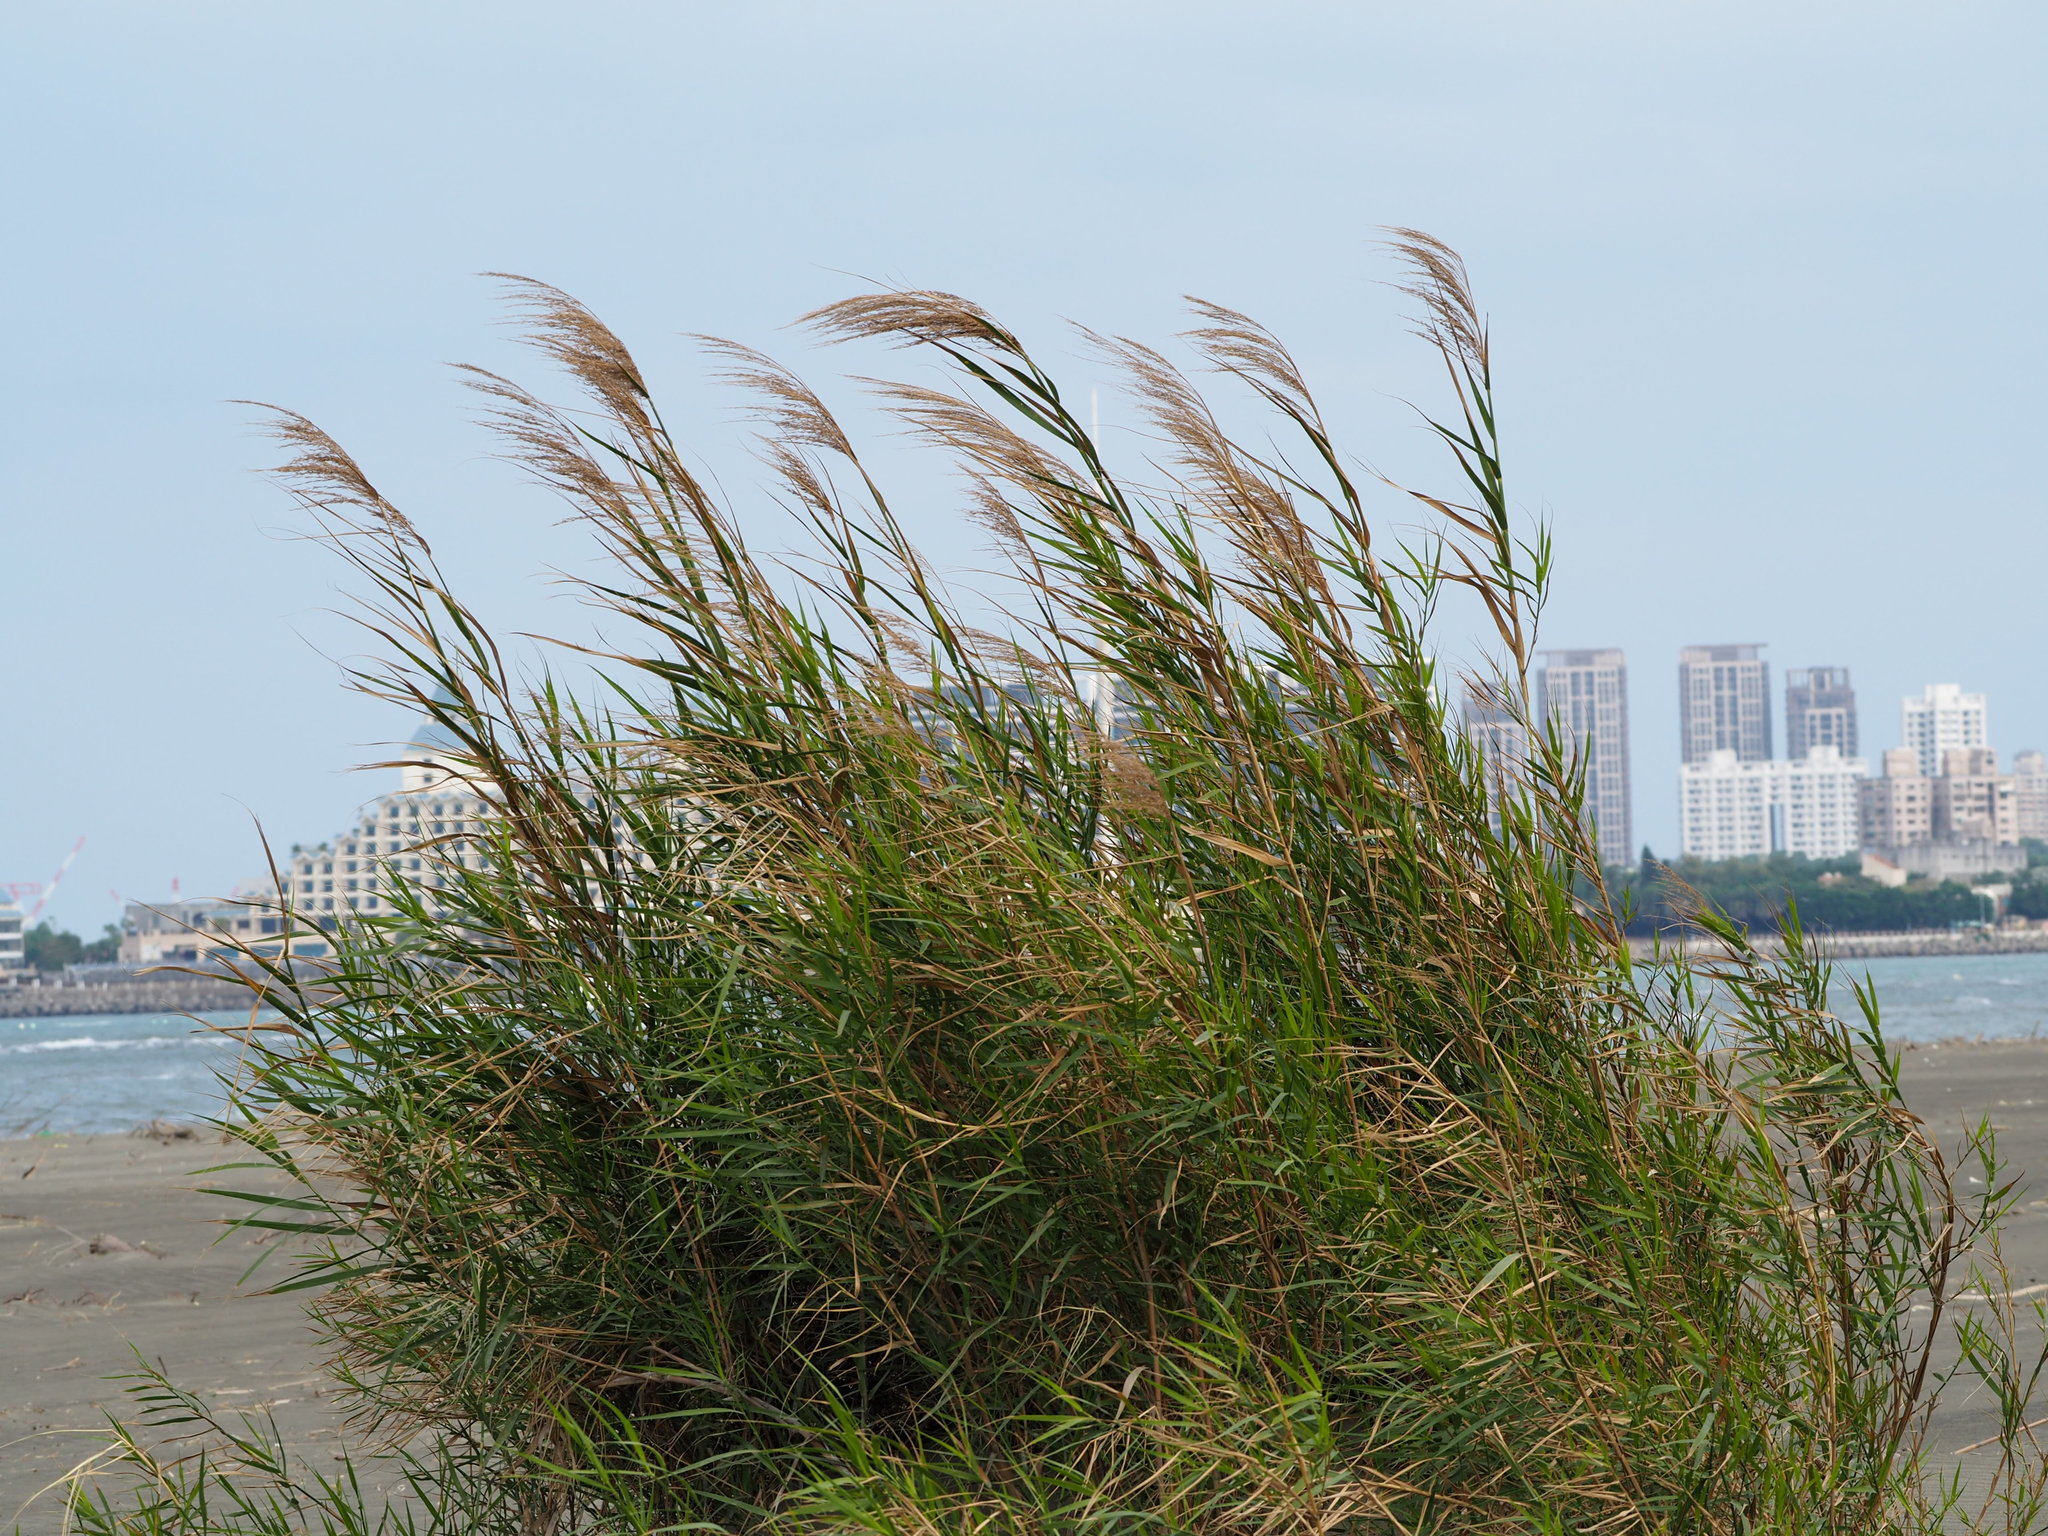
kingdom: Plantae
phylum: Tracheophyta
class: Liliopsida
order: Poales
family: Poaceae
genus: Phragmites
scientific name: Phragmites australis
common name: Common reed
